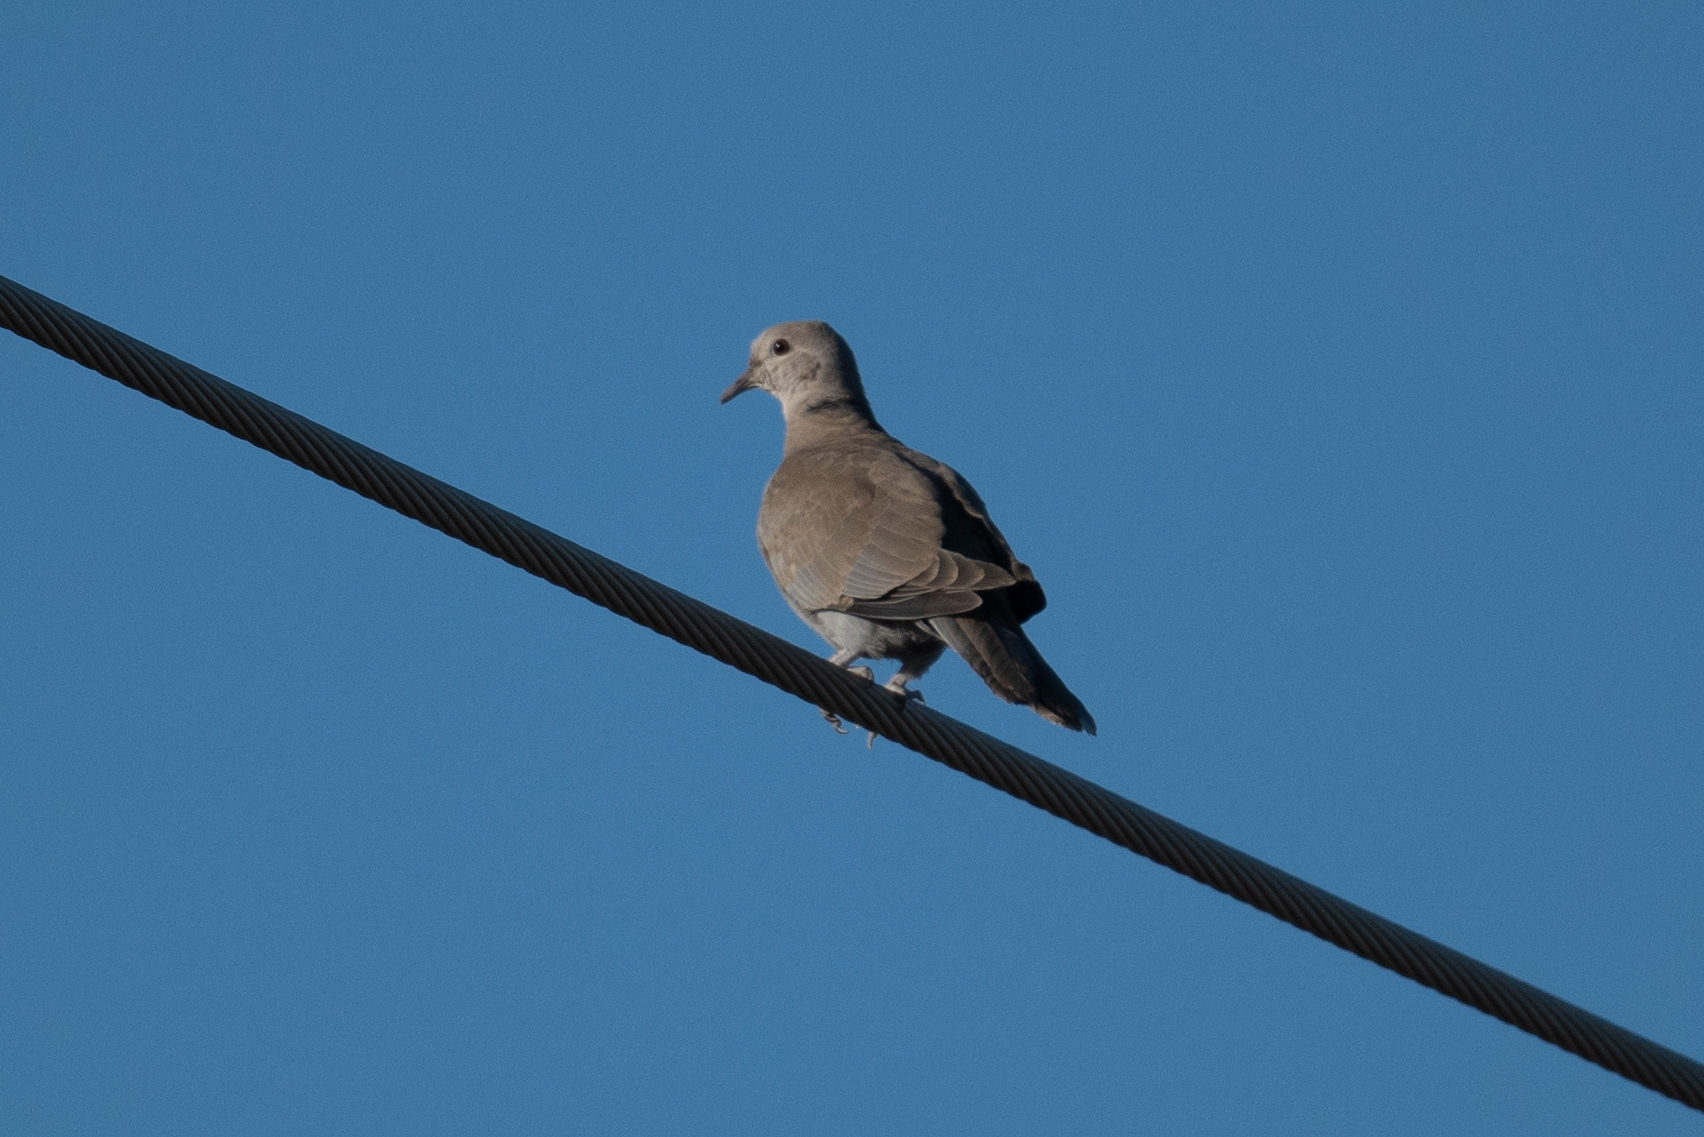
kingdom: Animalia
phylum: Chordata
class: Aves
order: Columbiformes
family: Columbidae
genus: Streptopelia
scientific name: Streptopelia decaocto
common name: Eurasian collared dove
